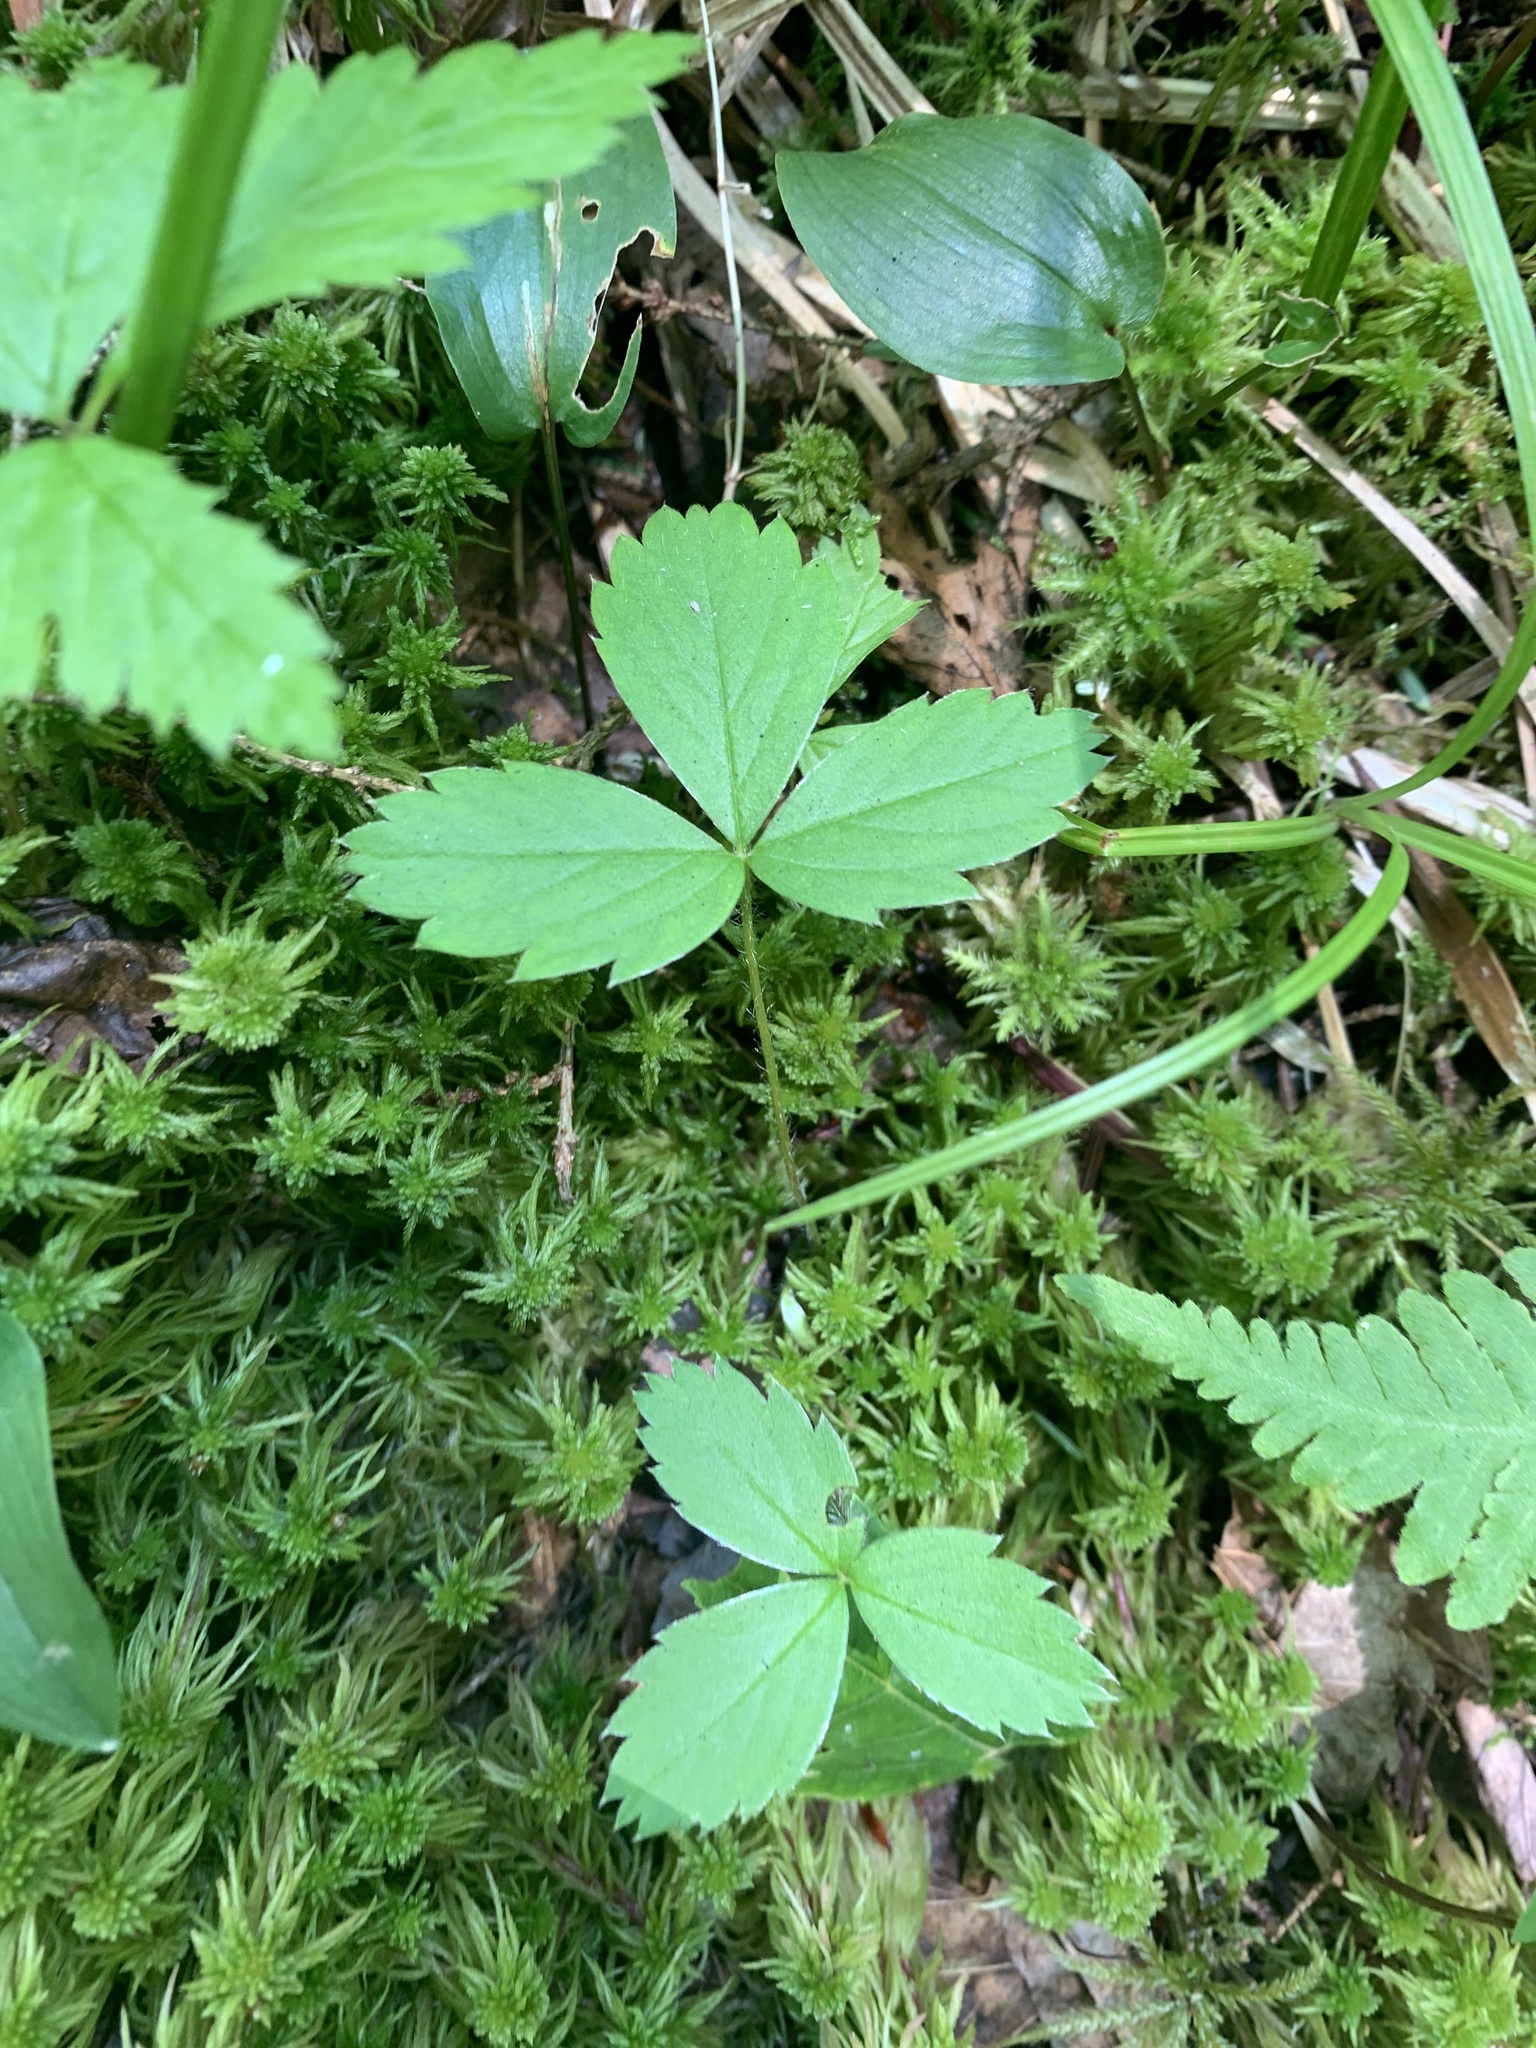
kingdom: Plantae
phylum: Tracheophyta
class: Magnoliopsida
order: Rosales
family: Rosaceae
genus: Fragaria
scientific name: Fragaria virginiana
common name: Thickleaved wild strawberry
